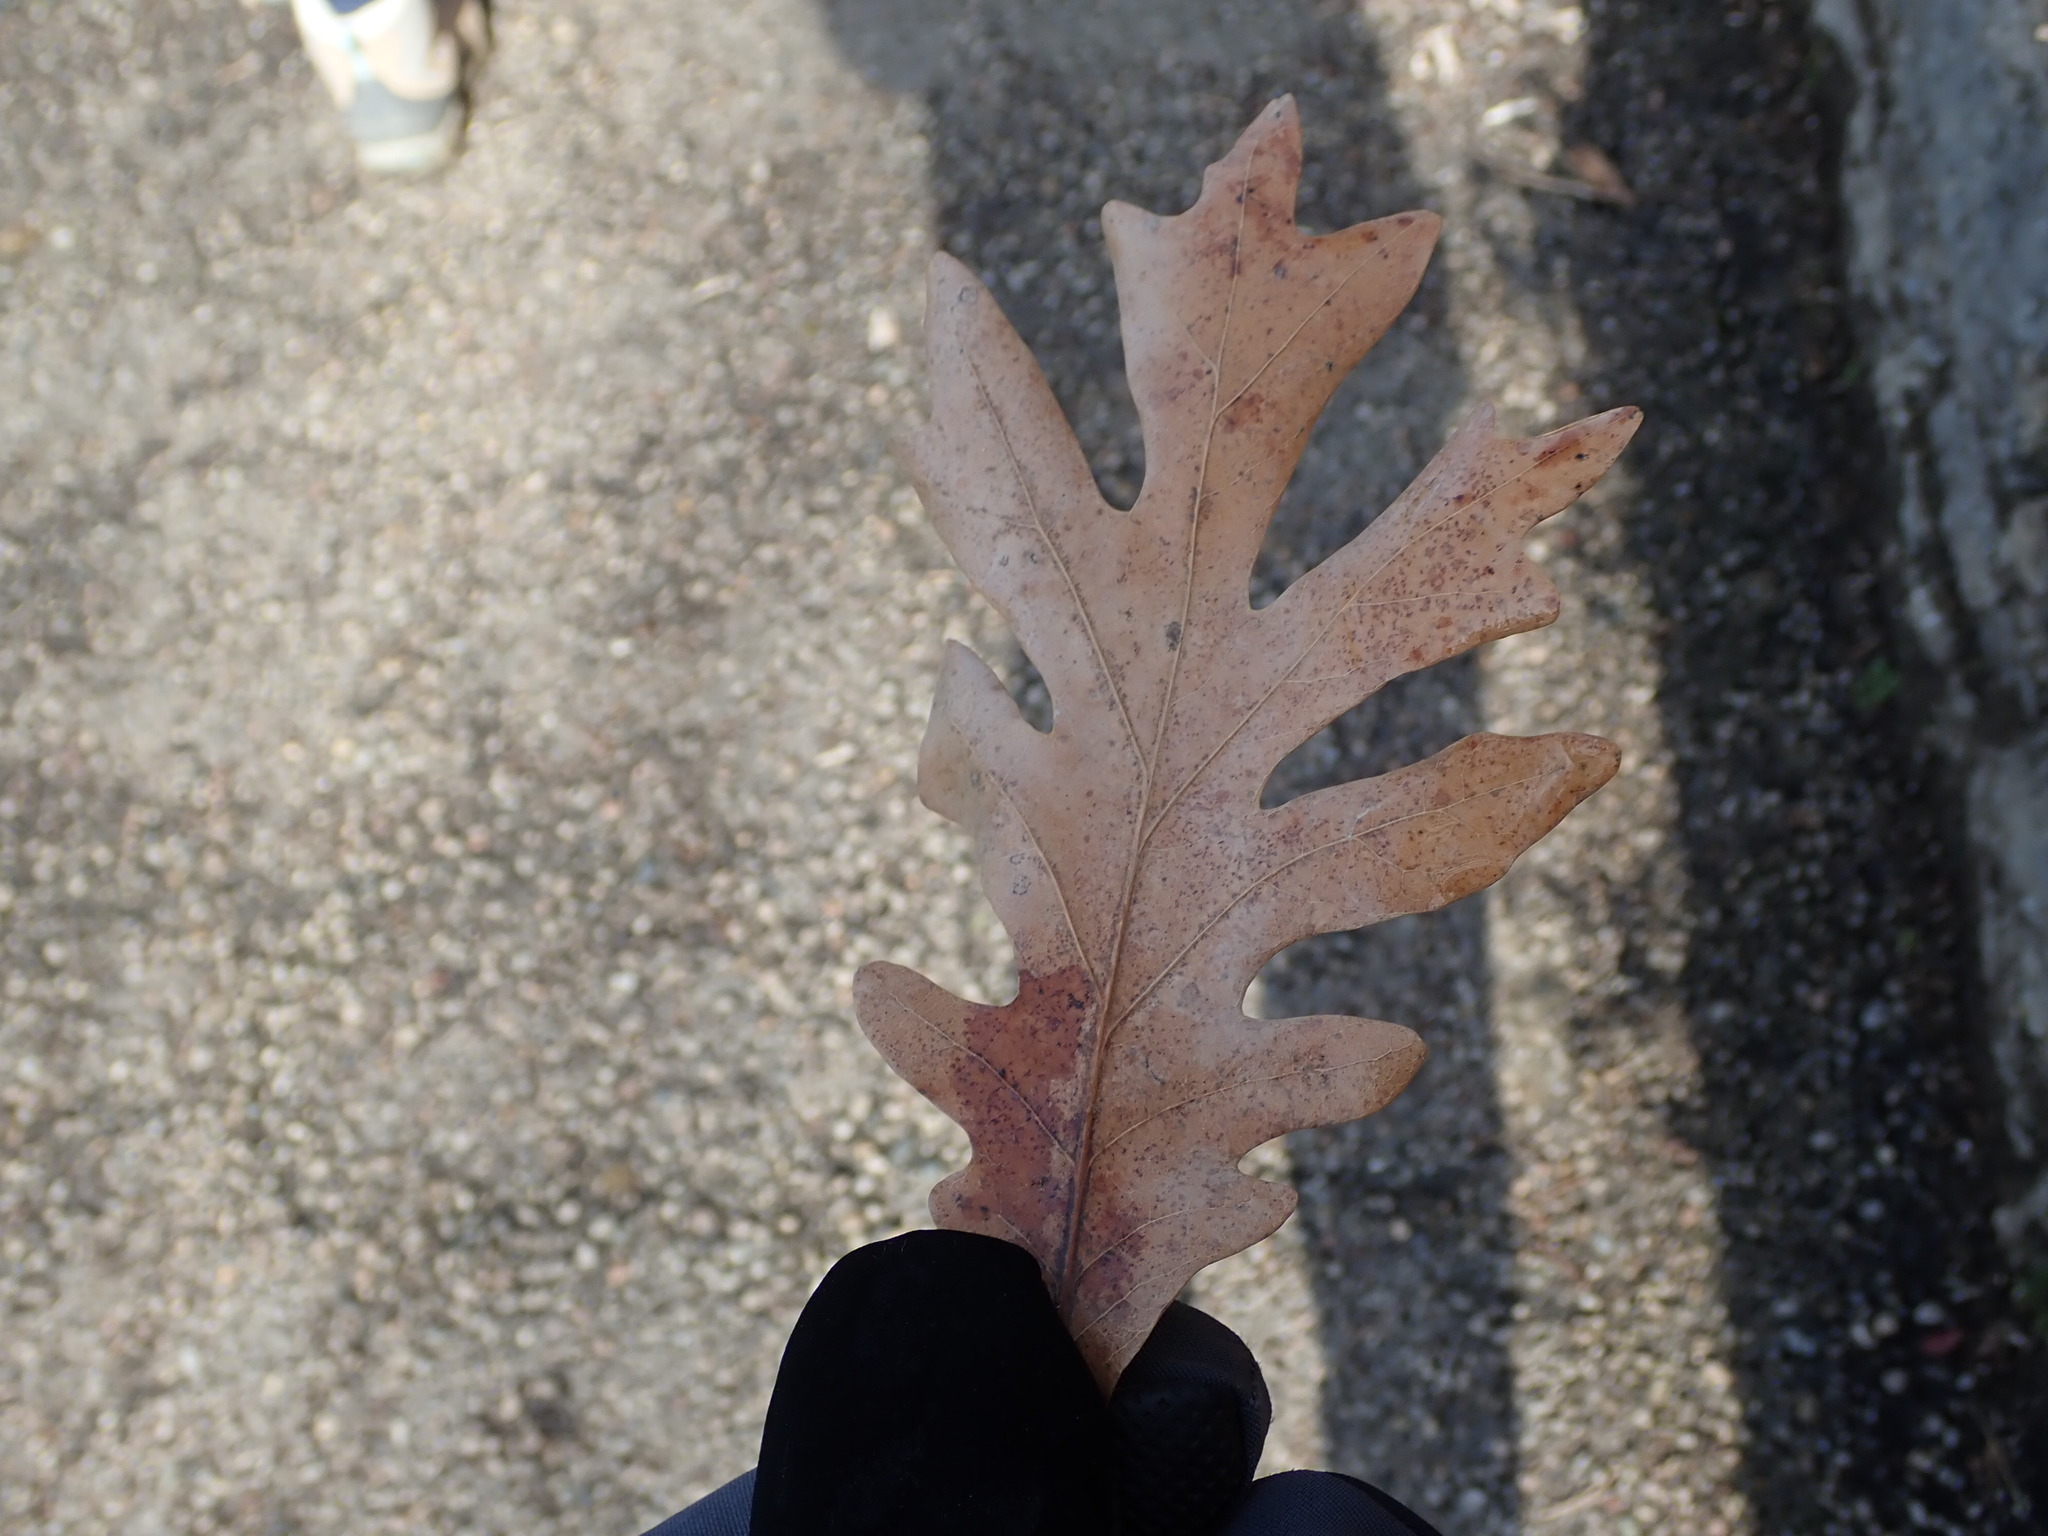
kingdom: Plantae
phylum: Tracheophyta
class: Magnoliopsida
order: Fagales
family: Fagaceae
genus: Quercus
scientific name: Quercus alba
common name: White oak
